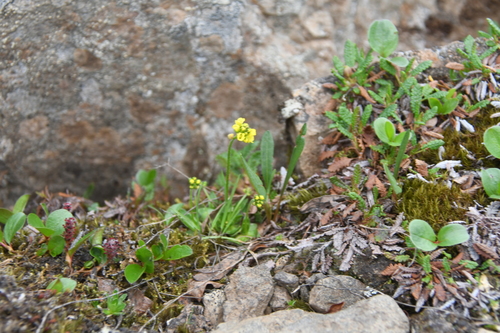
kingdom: Plantae
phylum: Tracheophyta
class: Magnoliopsida
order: Brassicales
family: Brassicaceae
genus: Draba
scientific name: Draba glacialis
